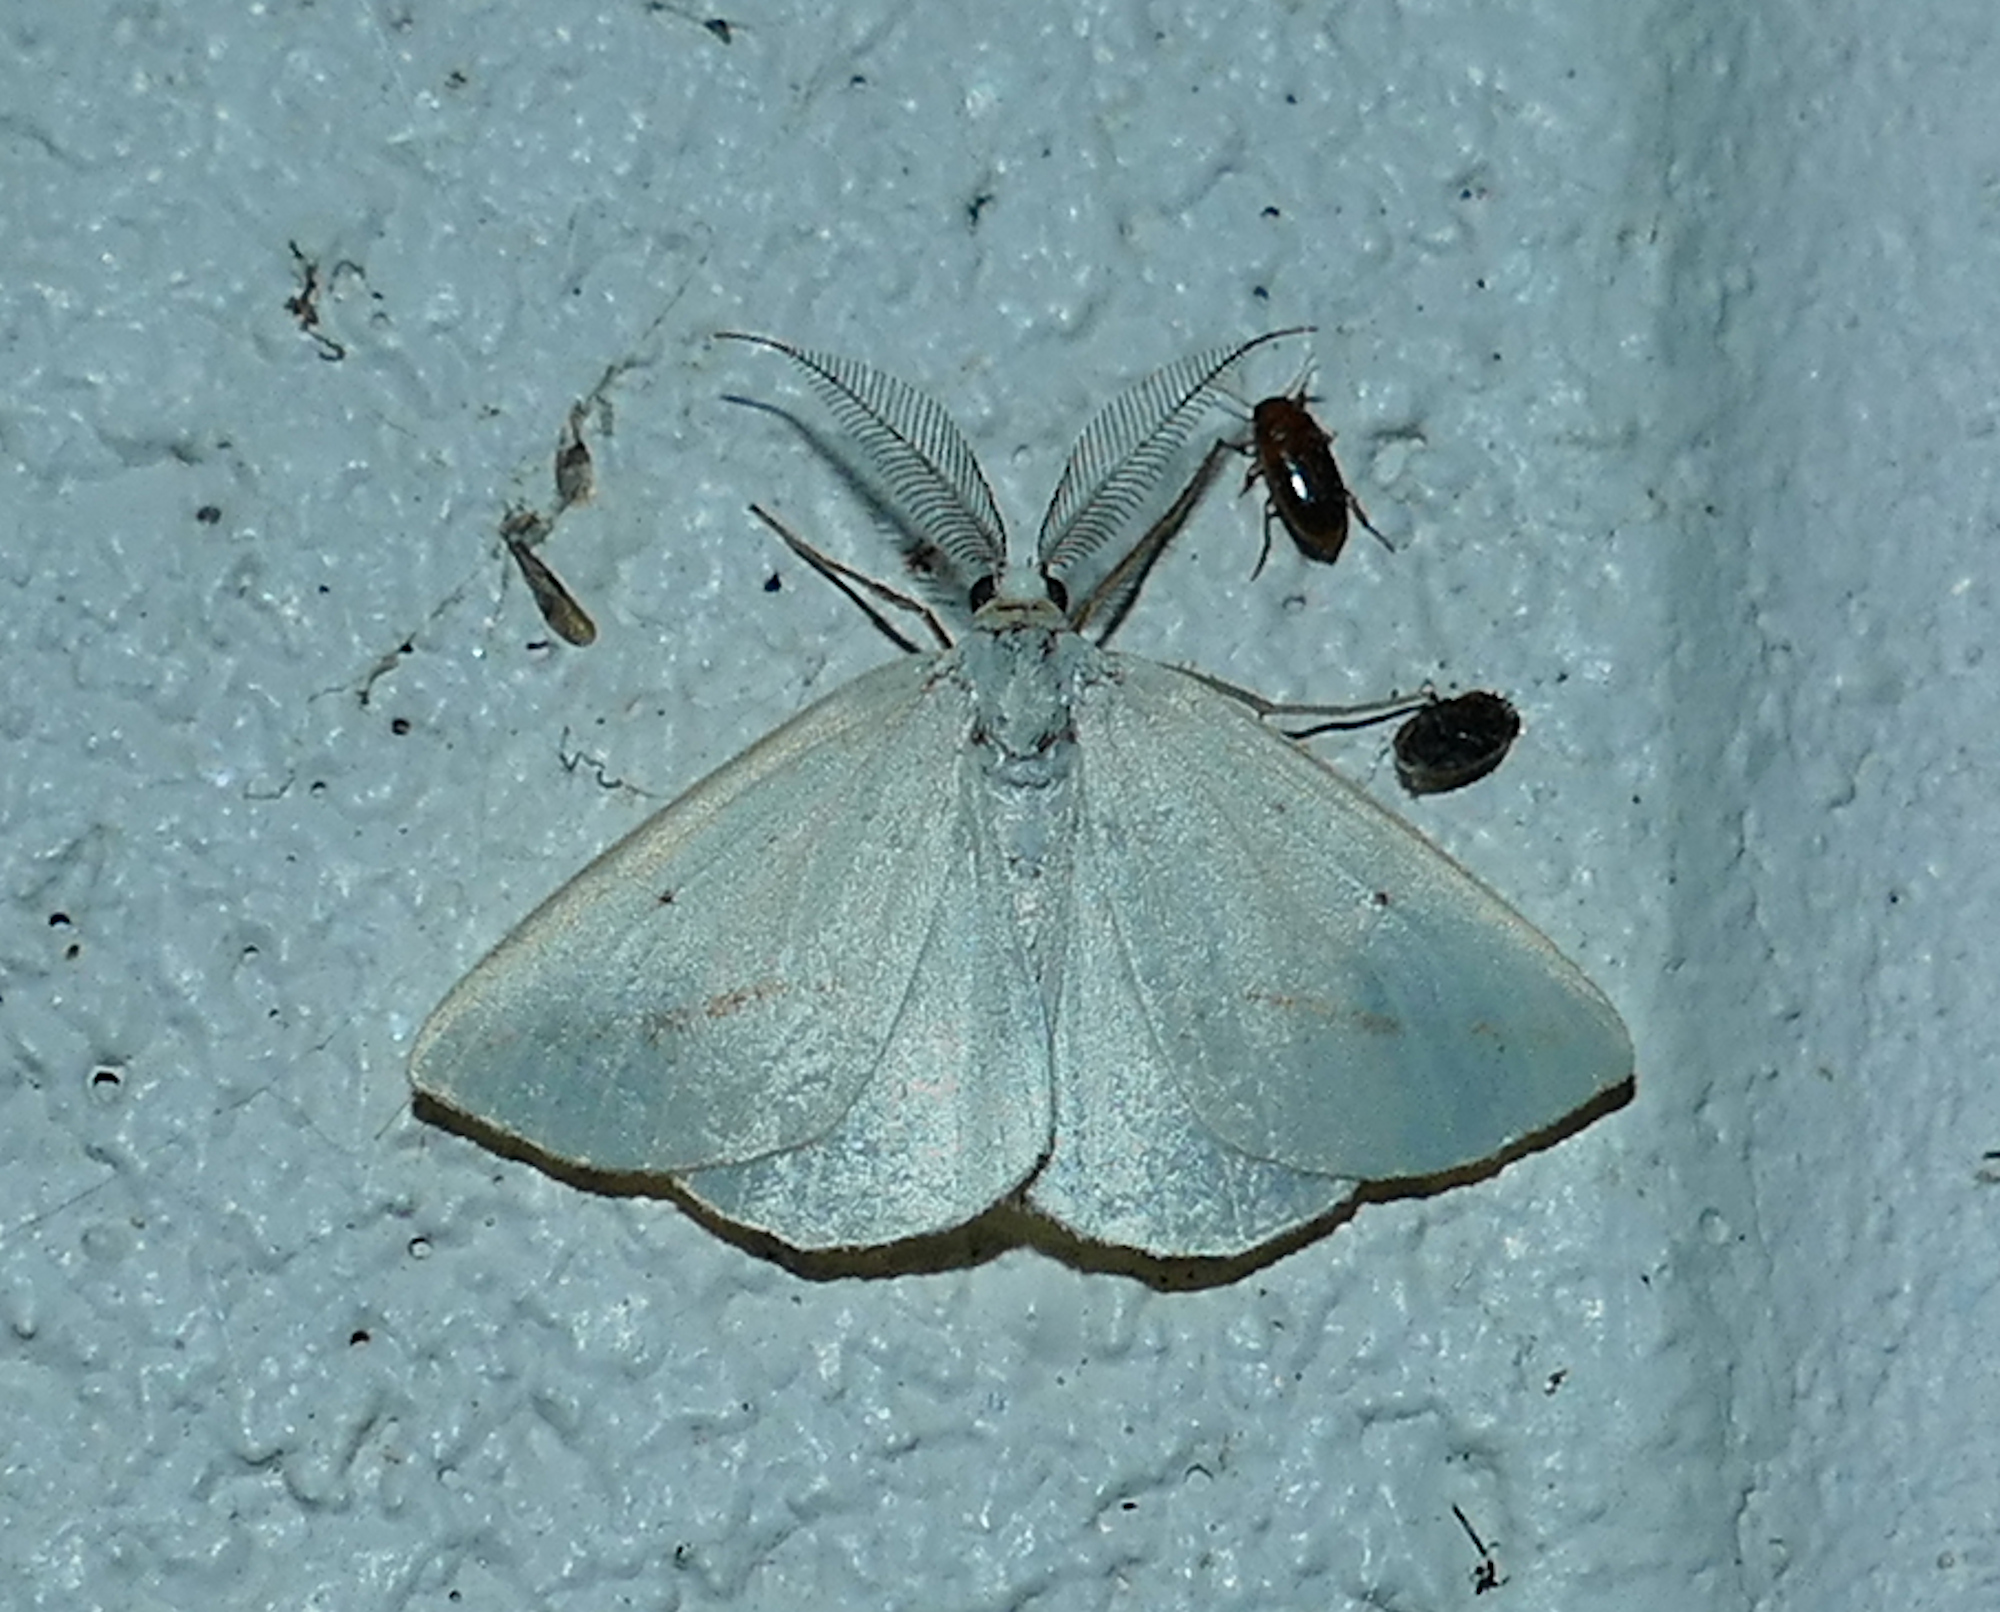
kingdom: Animalia
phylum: Arthropoda
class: Insecta
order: Lepidoptera
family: Geometridae
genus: Lychnosea
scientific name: Lychnosea intermicata
